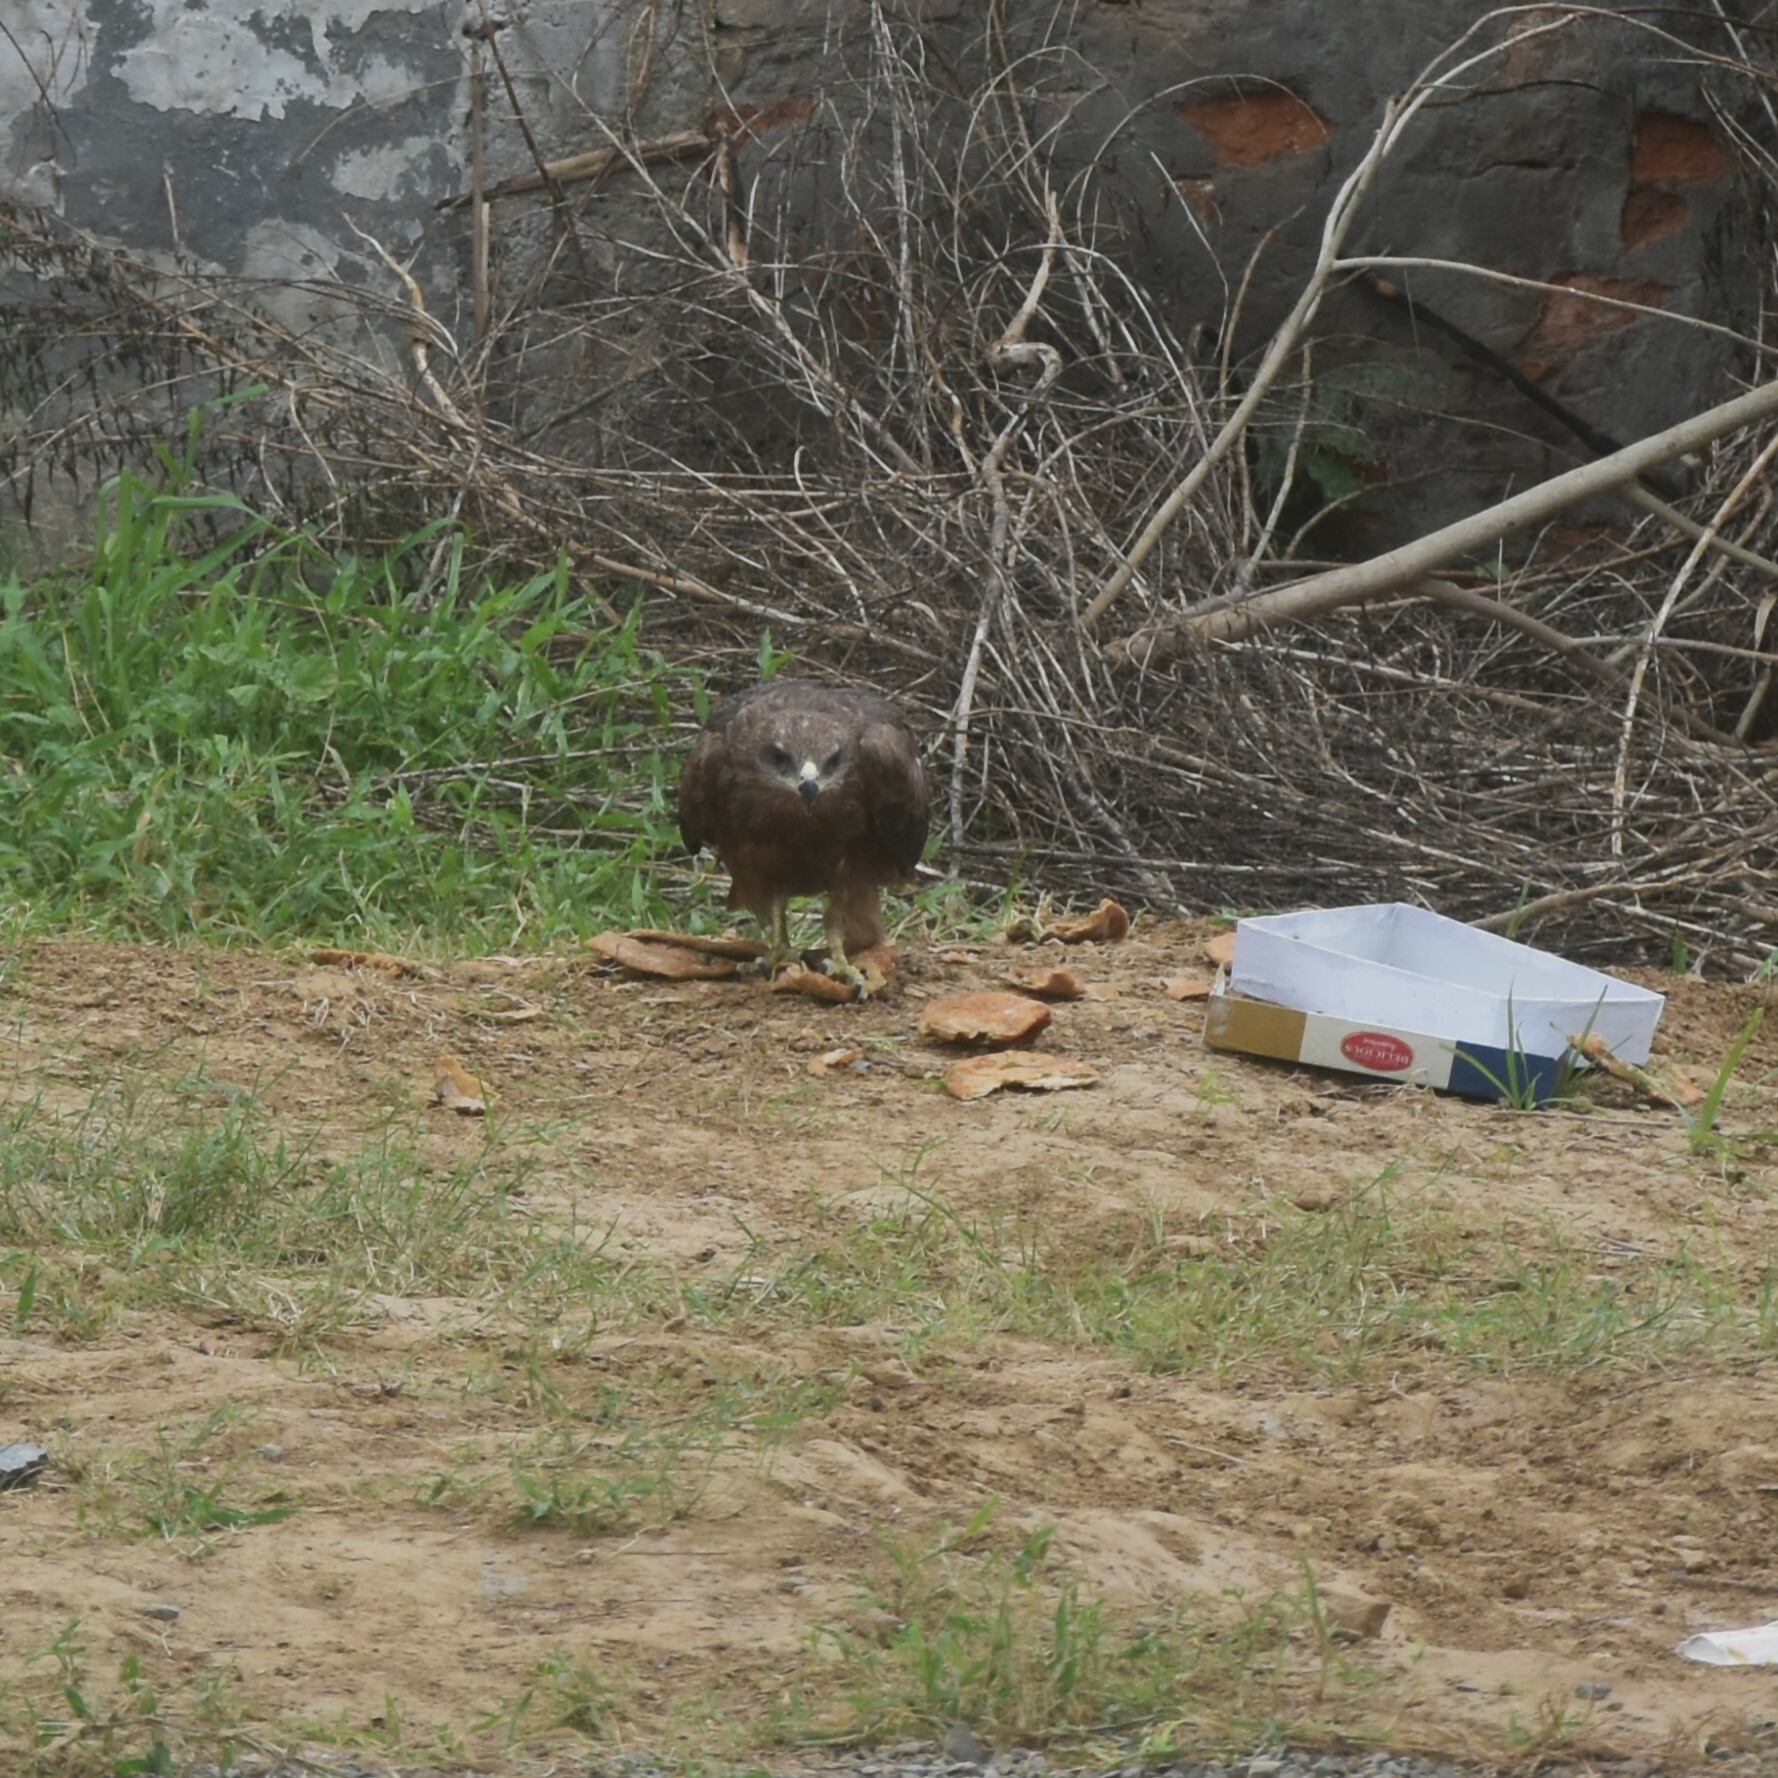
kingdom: Animalia
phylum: Chordata
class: Aves
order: Accipitriformes
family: Accipitridae
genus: Milvus
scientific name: Milvus migrans
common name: Black kite
